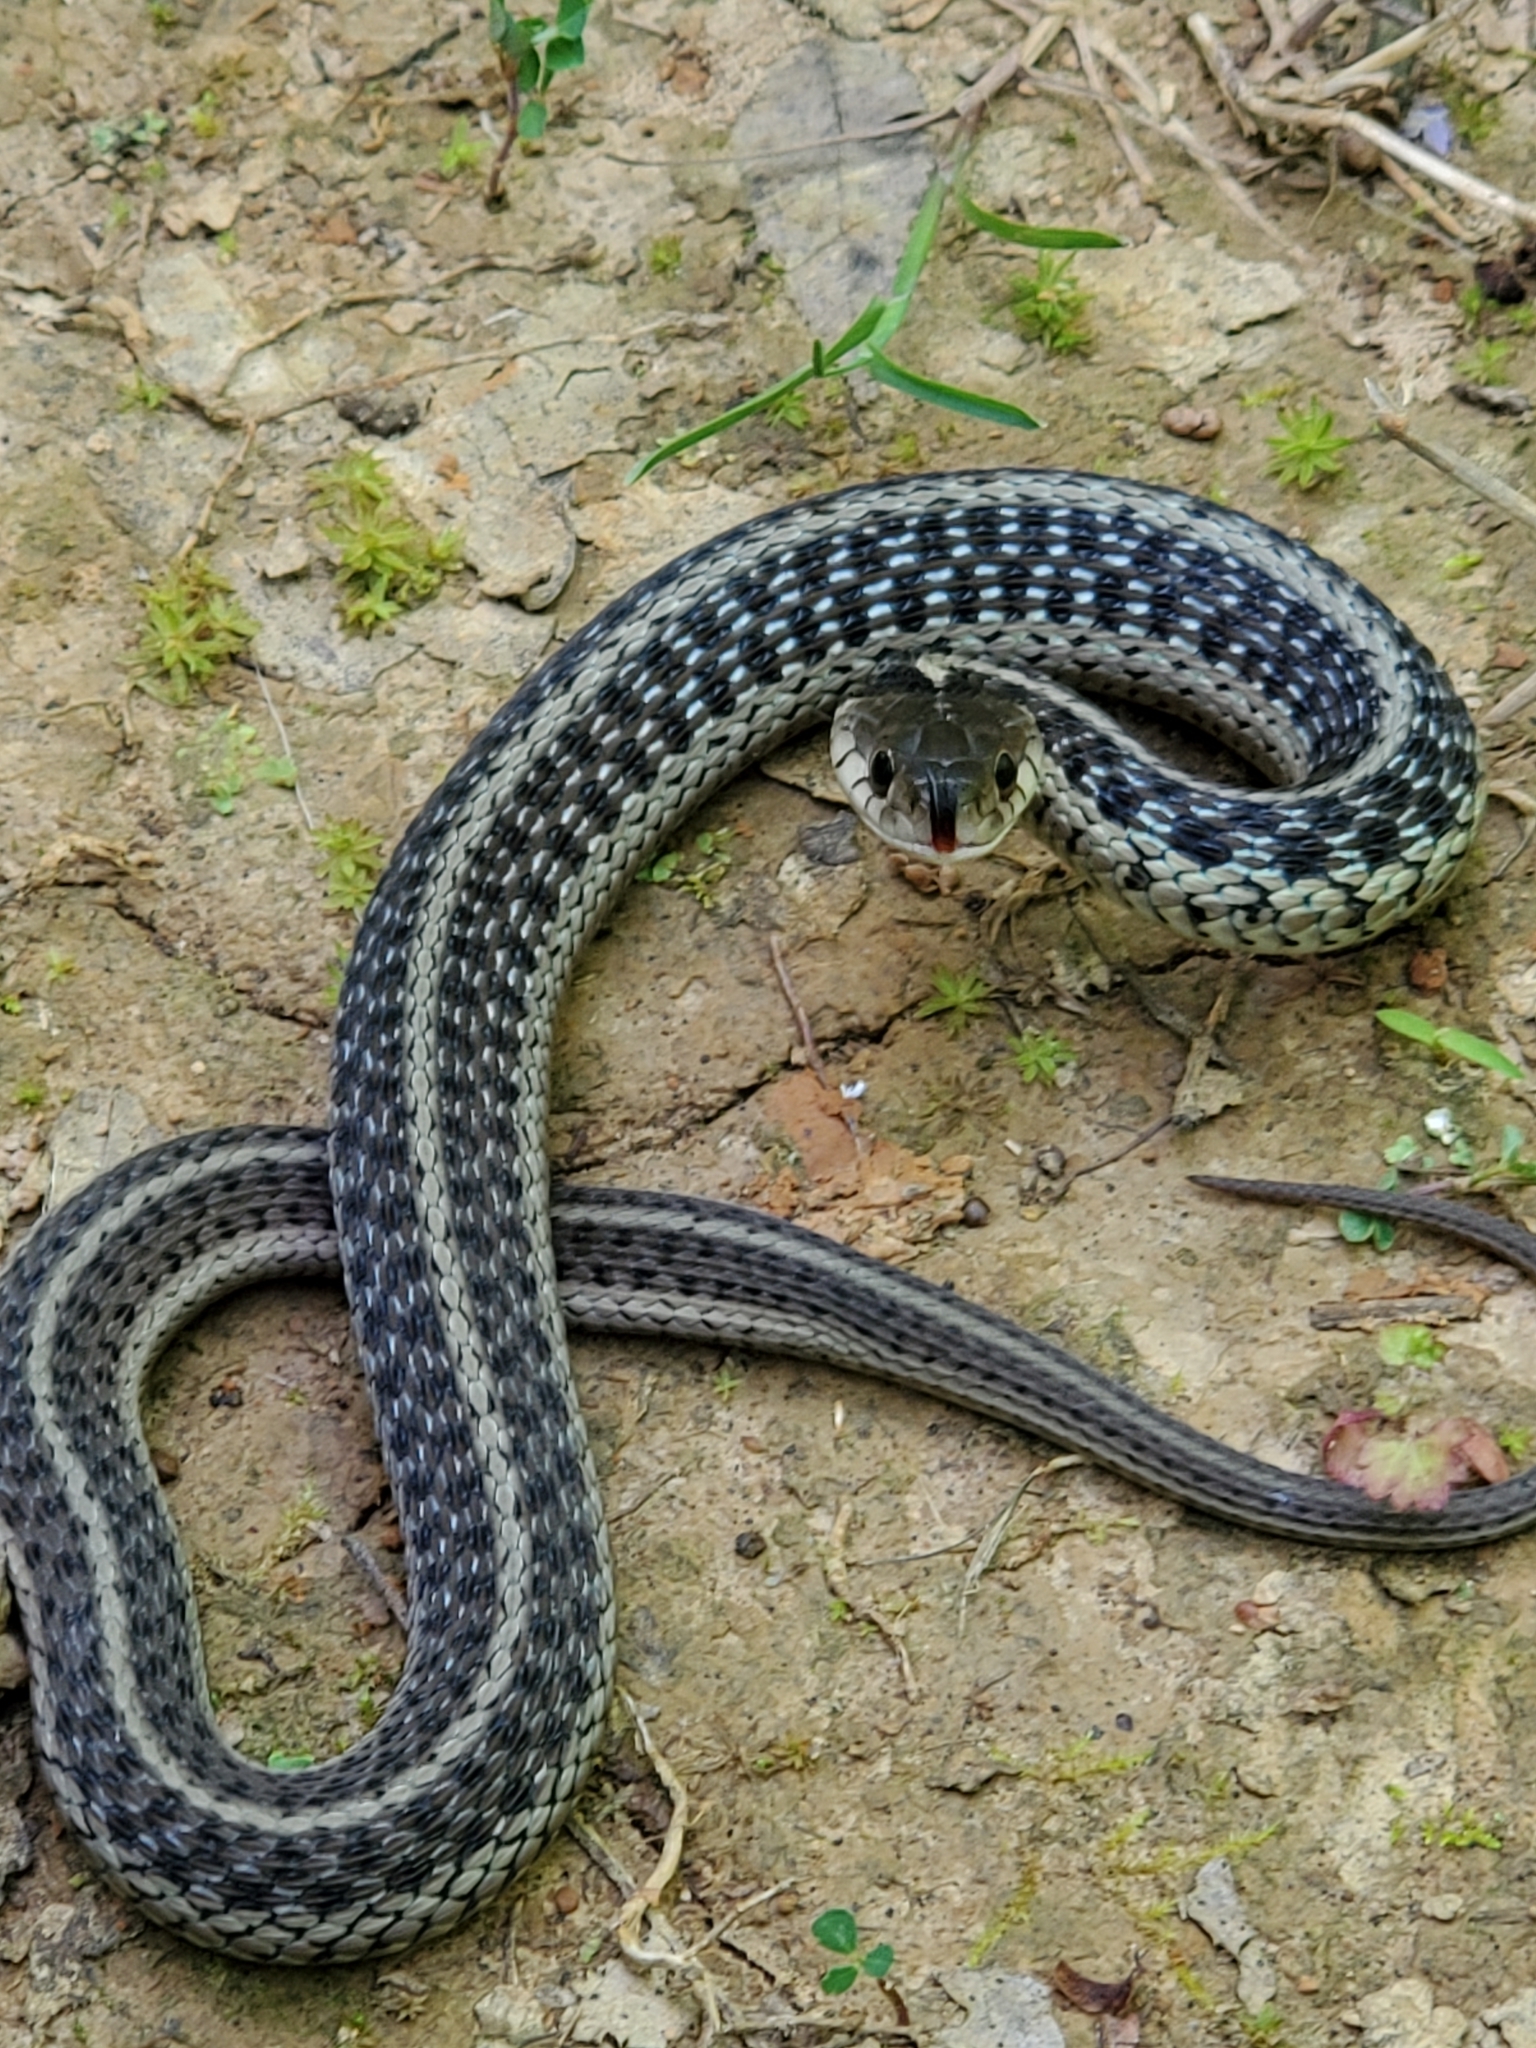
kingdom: Animalia
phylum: Chordata
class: Squamata
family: Colubridae
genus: Thamnophis
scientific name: Thamnophis sirtalis
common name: Common garter snake
